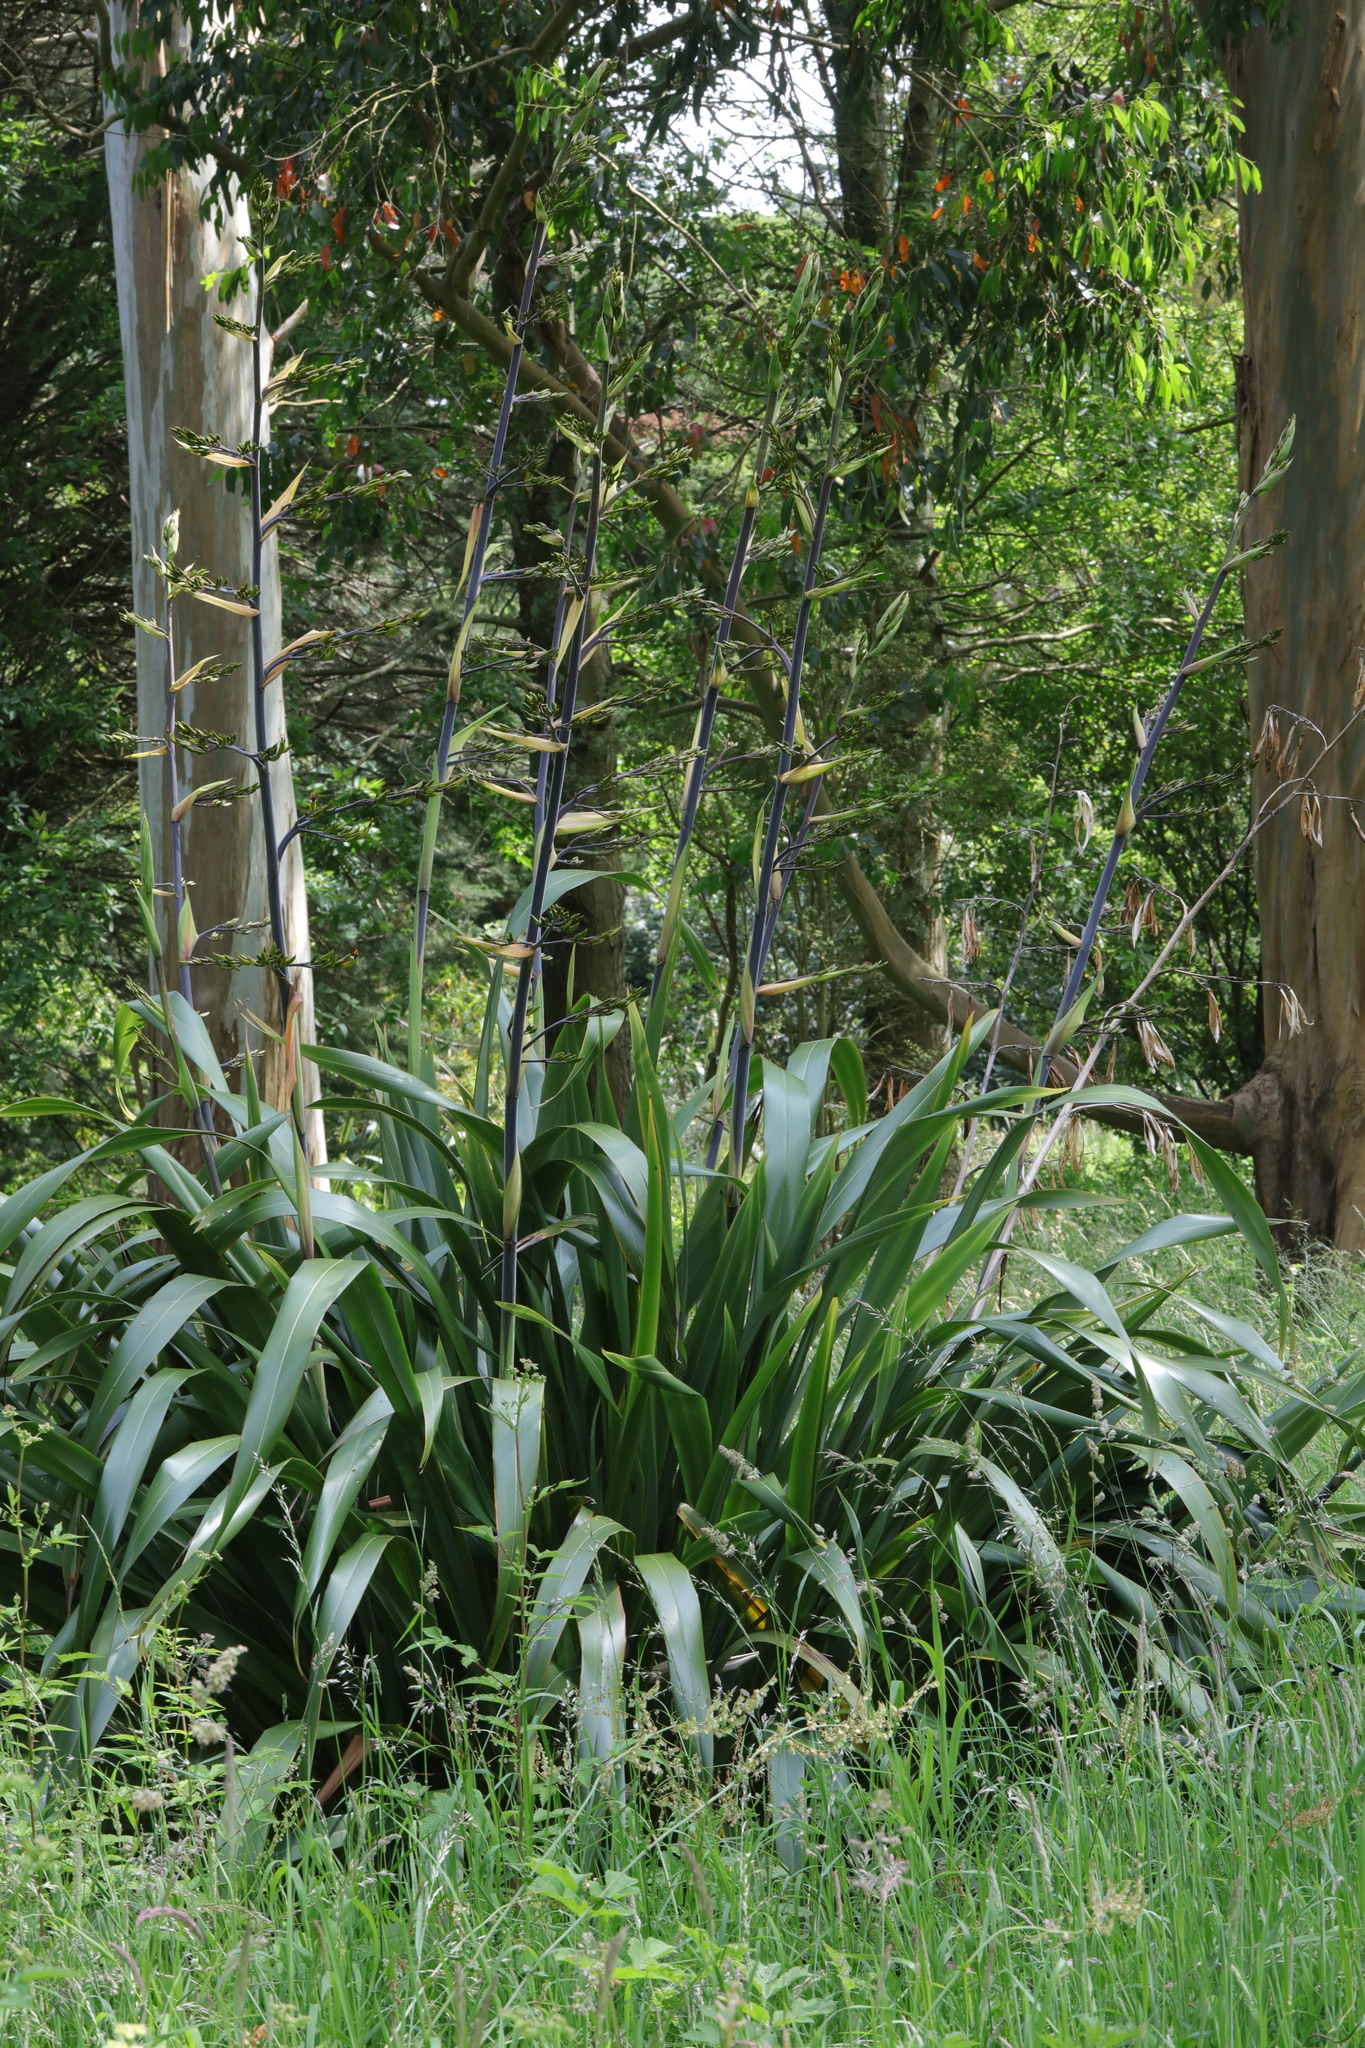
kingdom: Plantae
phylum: Tracheophyta
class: Liliopsida
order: Asparagales
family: Asphodelaceae
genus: Phormium
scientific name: Phormium tenax
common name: New zealand flax
